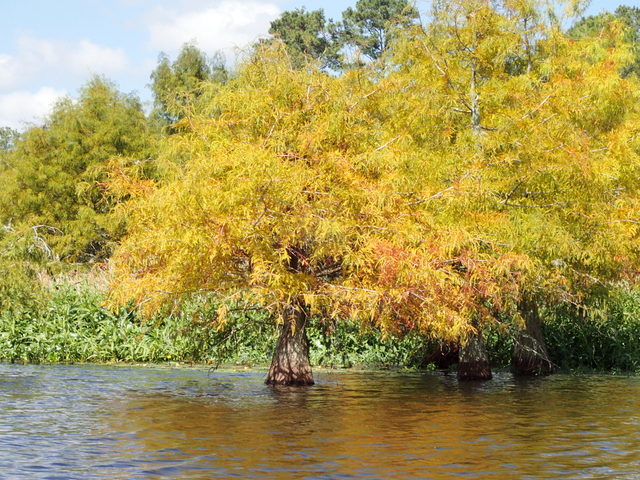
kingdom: Plantae
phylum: Tracheophyta
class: Pinopsida
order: Pinales
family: Cupressaceae
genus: Taxodium
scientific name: Taxodium distichum
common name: Bald cypress
